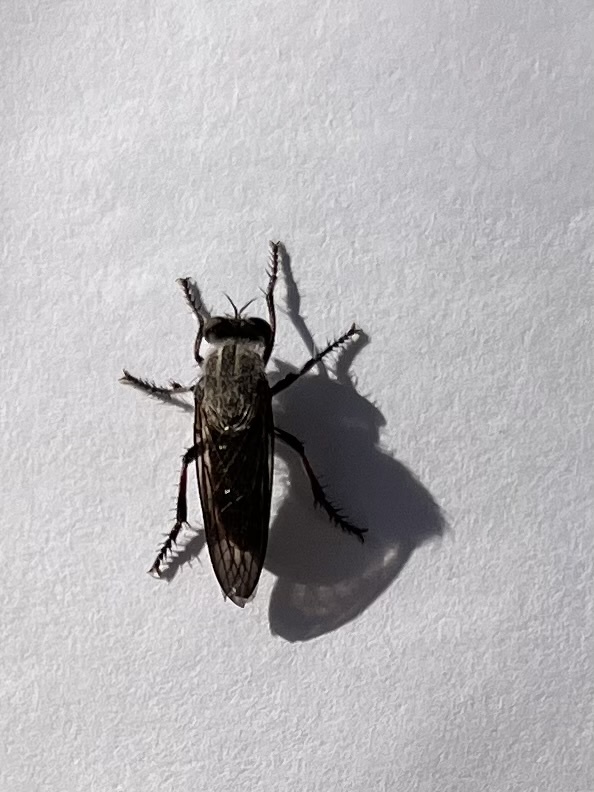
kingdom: Animalia
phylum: Arthropoda
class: Insecta
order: Diptera
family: Asilidae
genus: Heteropogon
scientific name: Heteropogon macerinus
